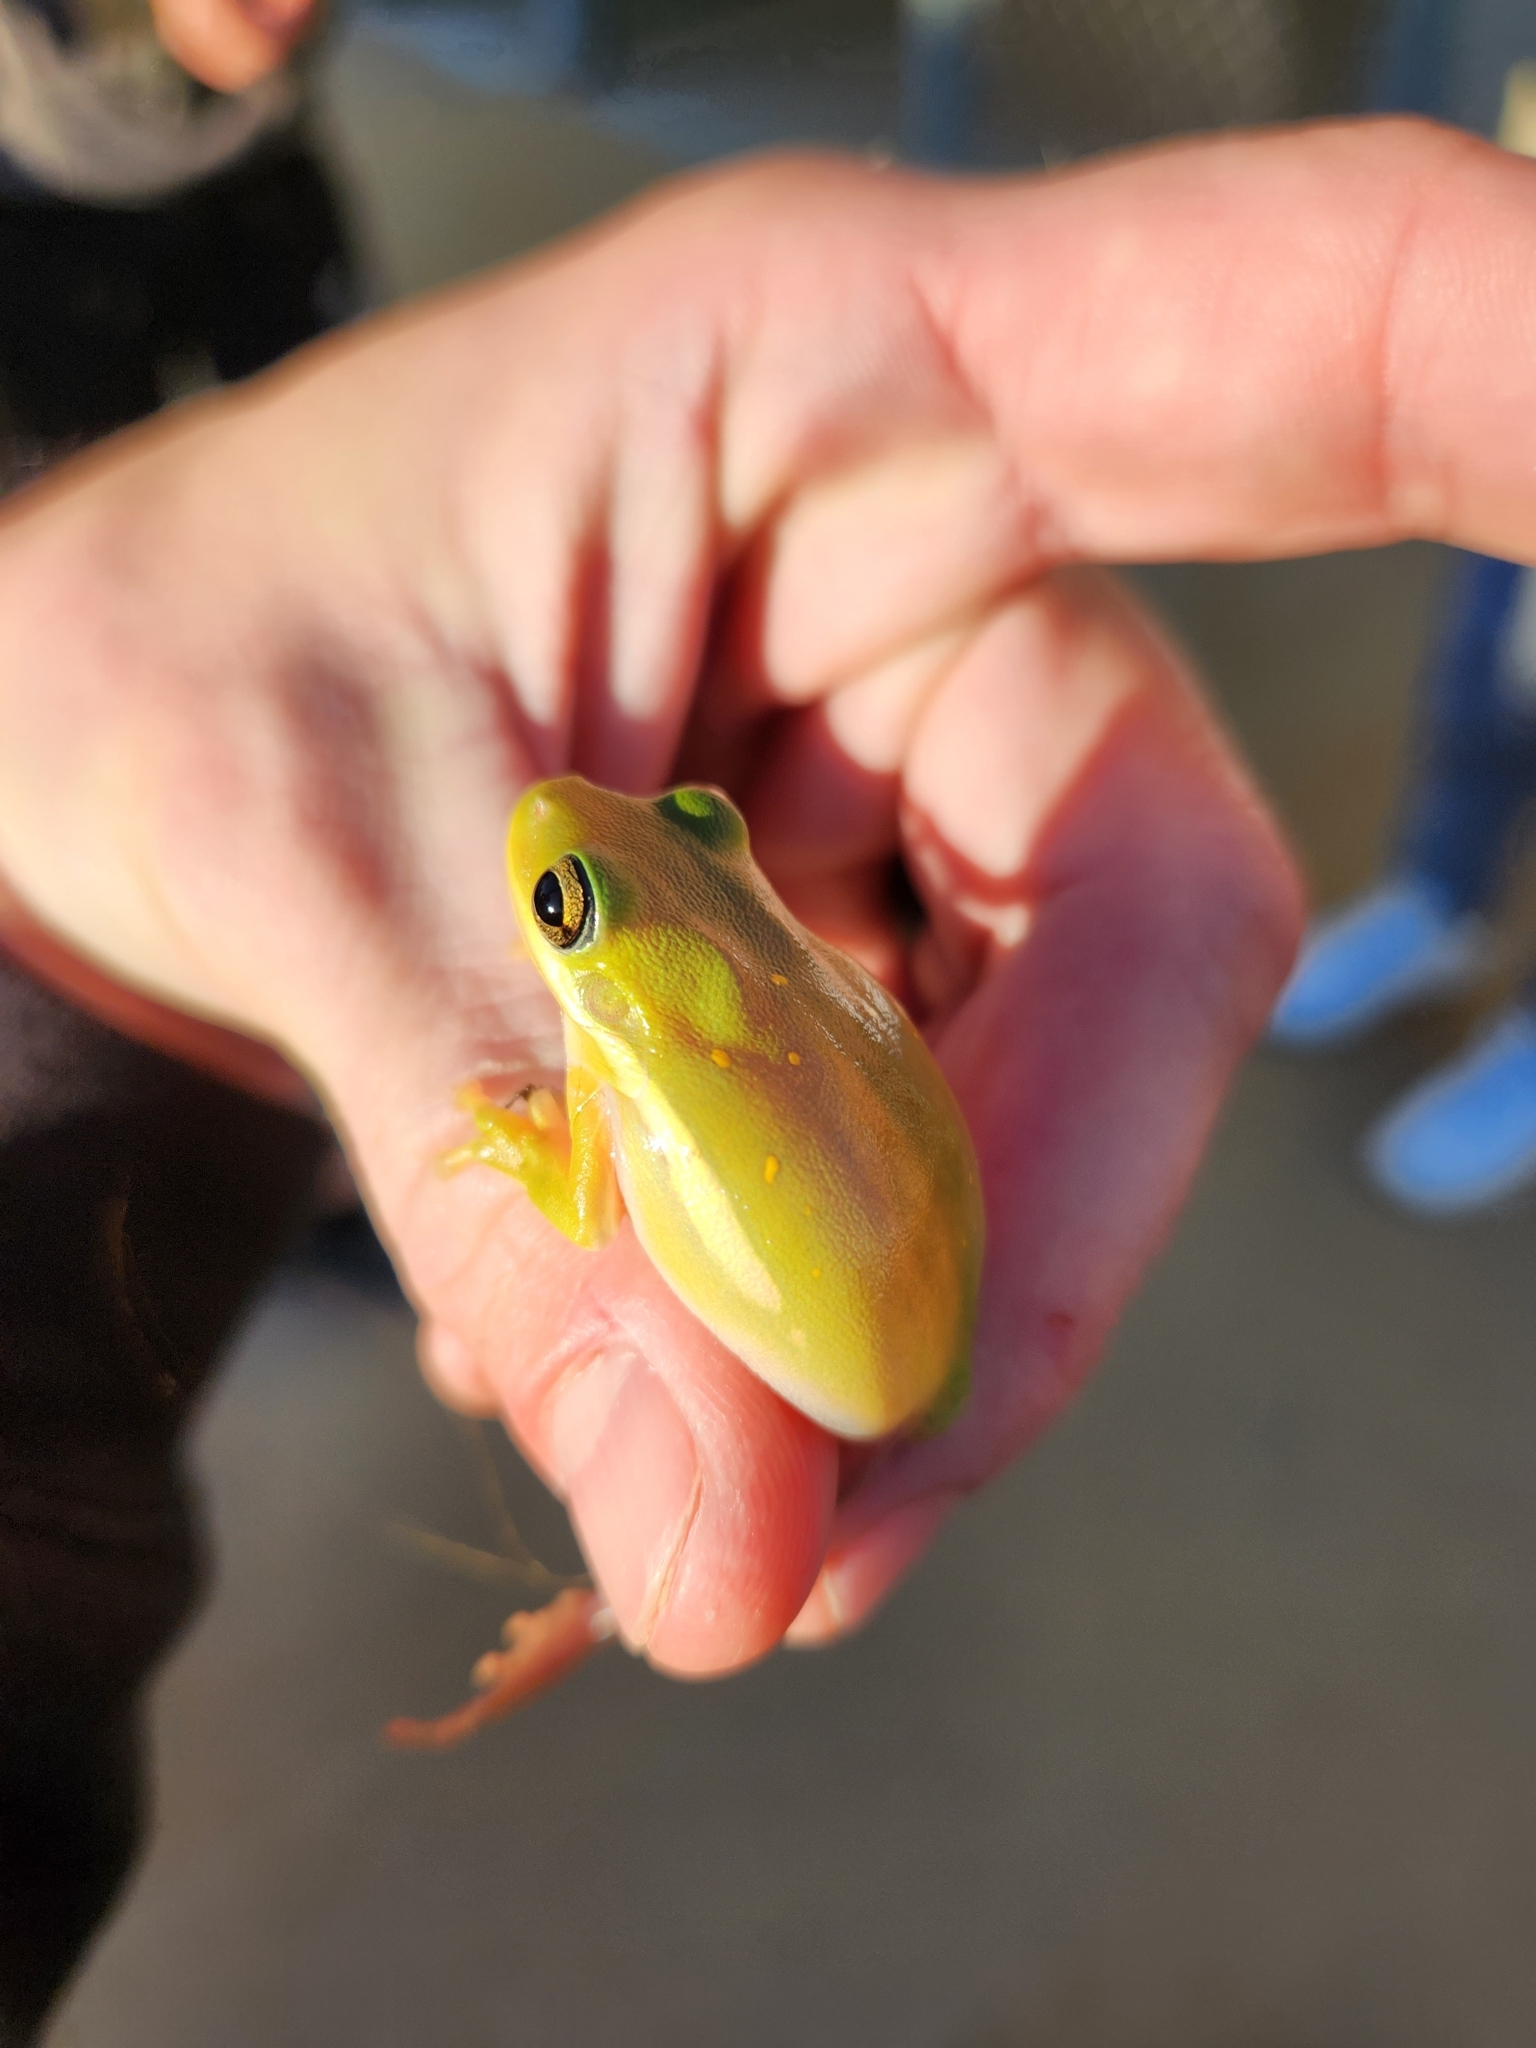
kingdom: Animalia
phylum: Chordata
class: Amphibia
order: Anura
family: Hylidae
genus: Dryophytes
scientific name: Dryophytes cinereus
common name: Green treefrog
